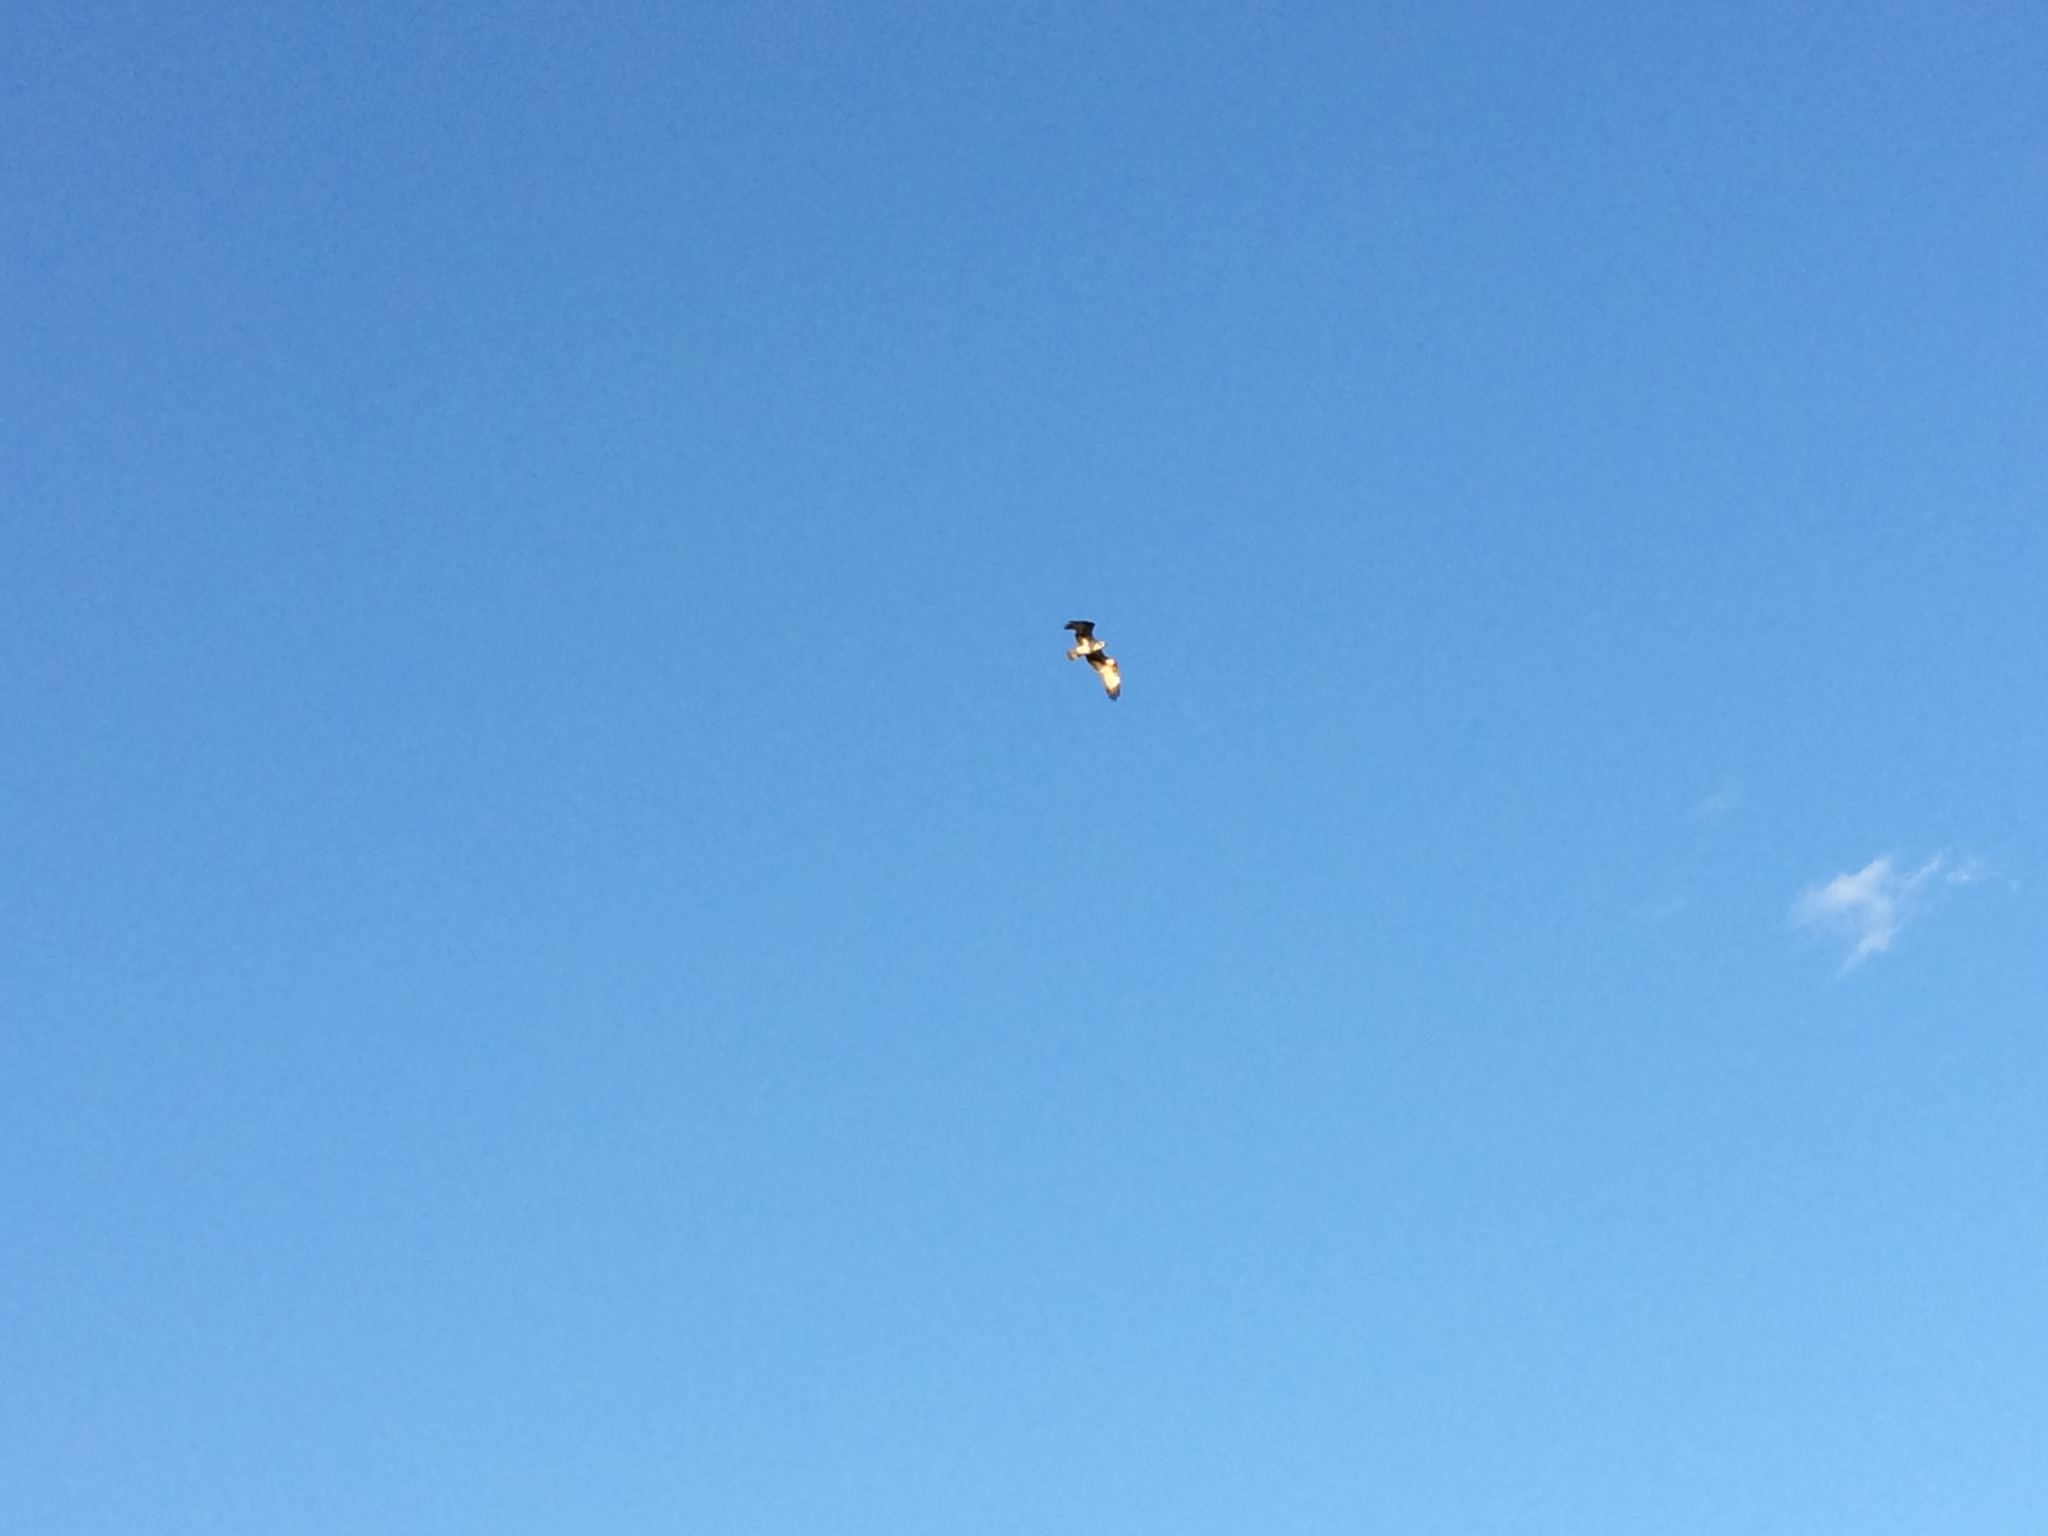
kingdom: Animalia
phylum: Chordata
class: Aves
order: Accipitriformes
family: Pandionidae
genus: Pandion
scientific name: Pandion haliaetus
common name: Osprey
